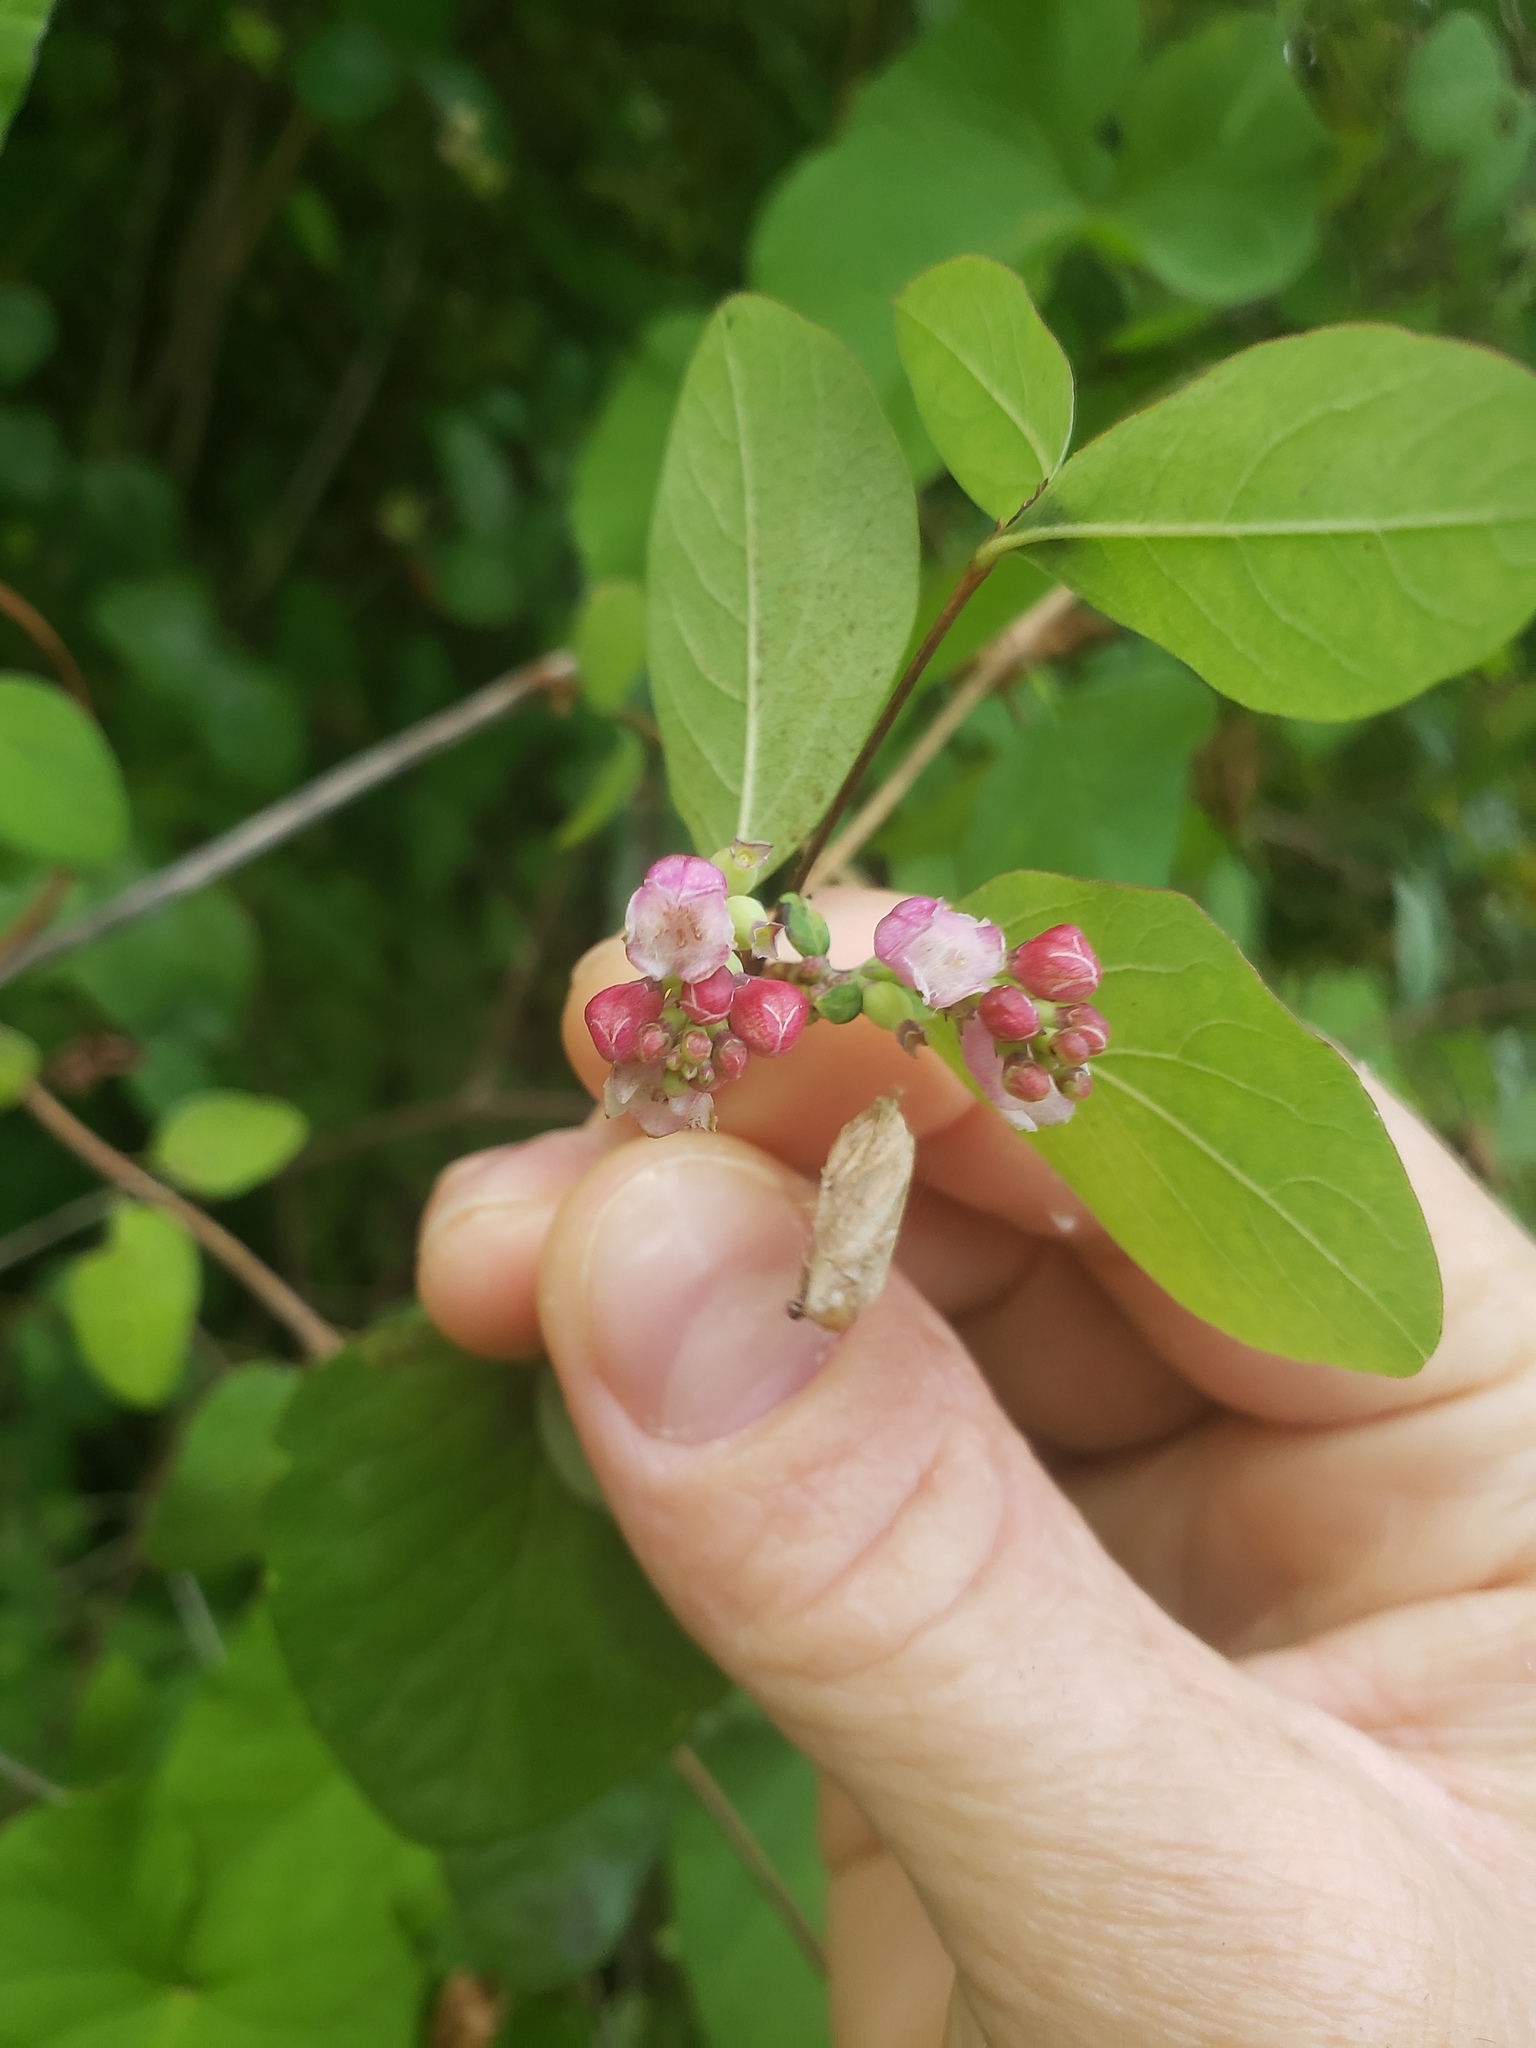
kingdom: Plantae
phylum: Tracheophyta
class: Magnoliopsida
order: Dipsacales
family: Caprifoliaceae
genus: Symphoricarpos
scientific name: Symphoricarpos albus
